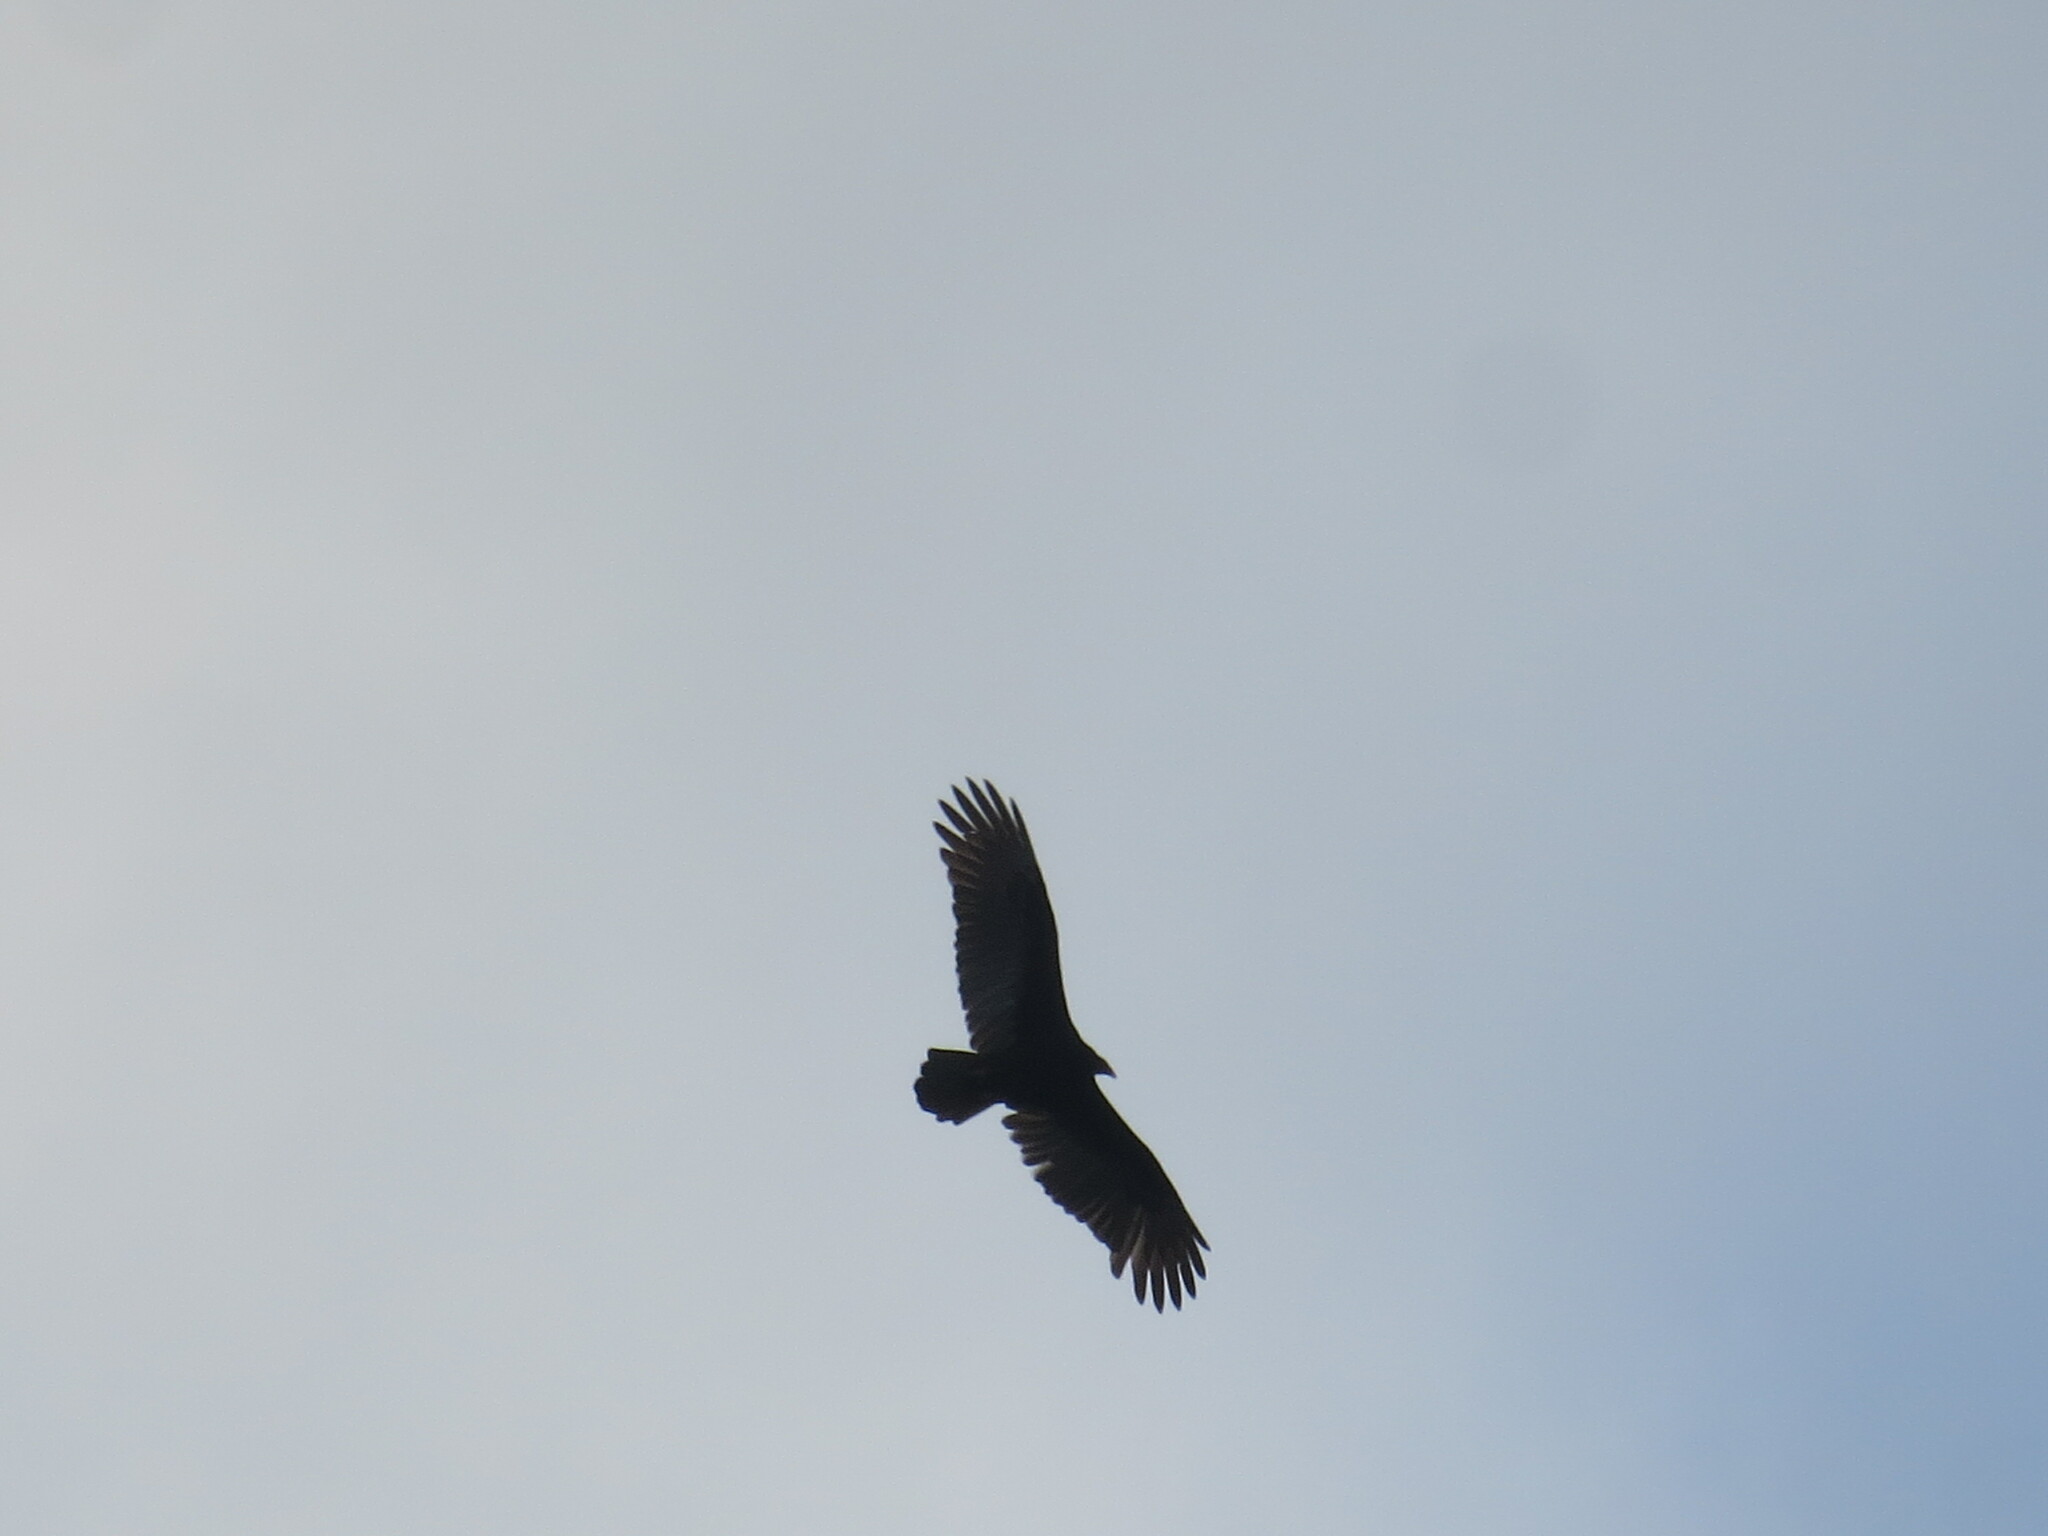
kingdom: Animalia
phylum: Chordata
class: Aves
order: Accipitriformes
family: Cathartidae
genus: Cathartes
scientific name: Cathartes aura
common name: Turkey vulture
